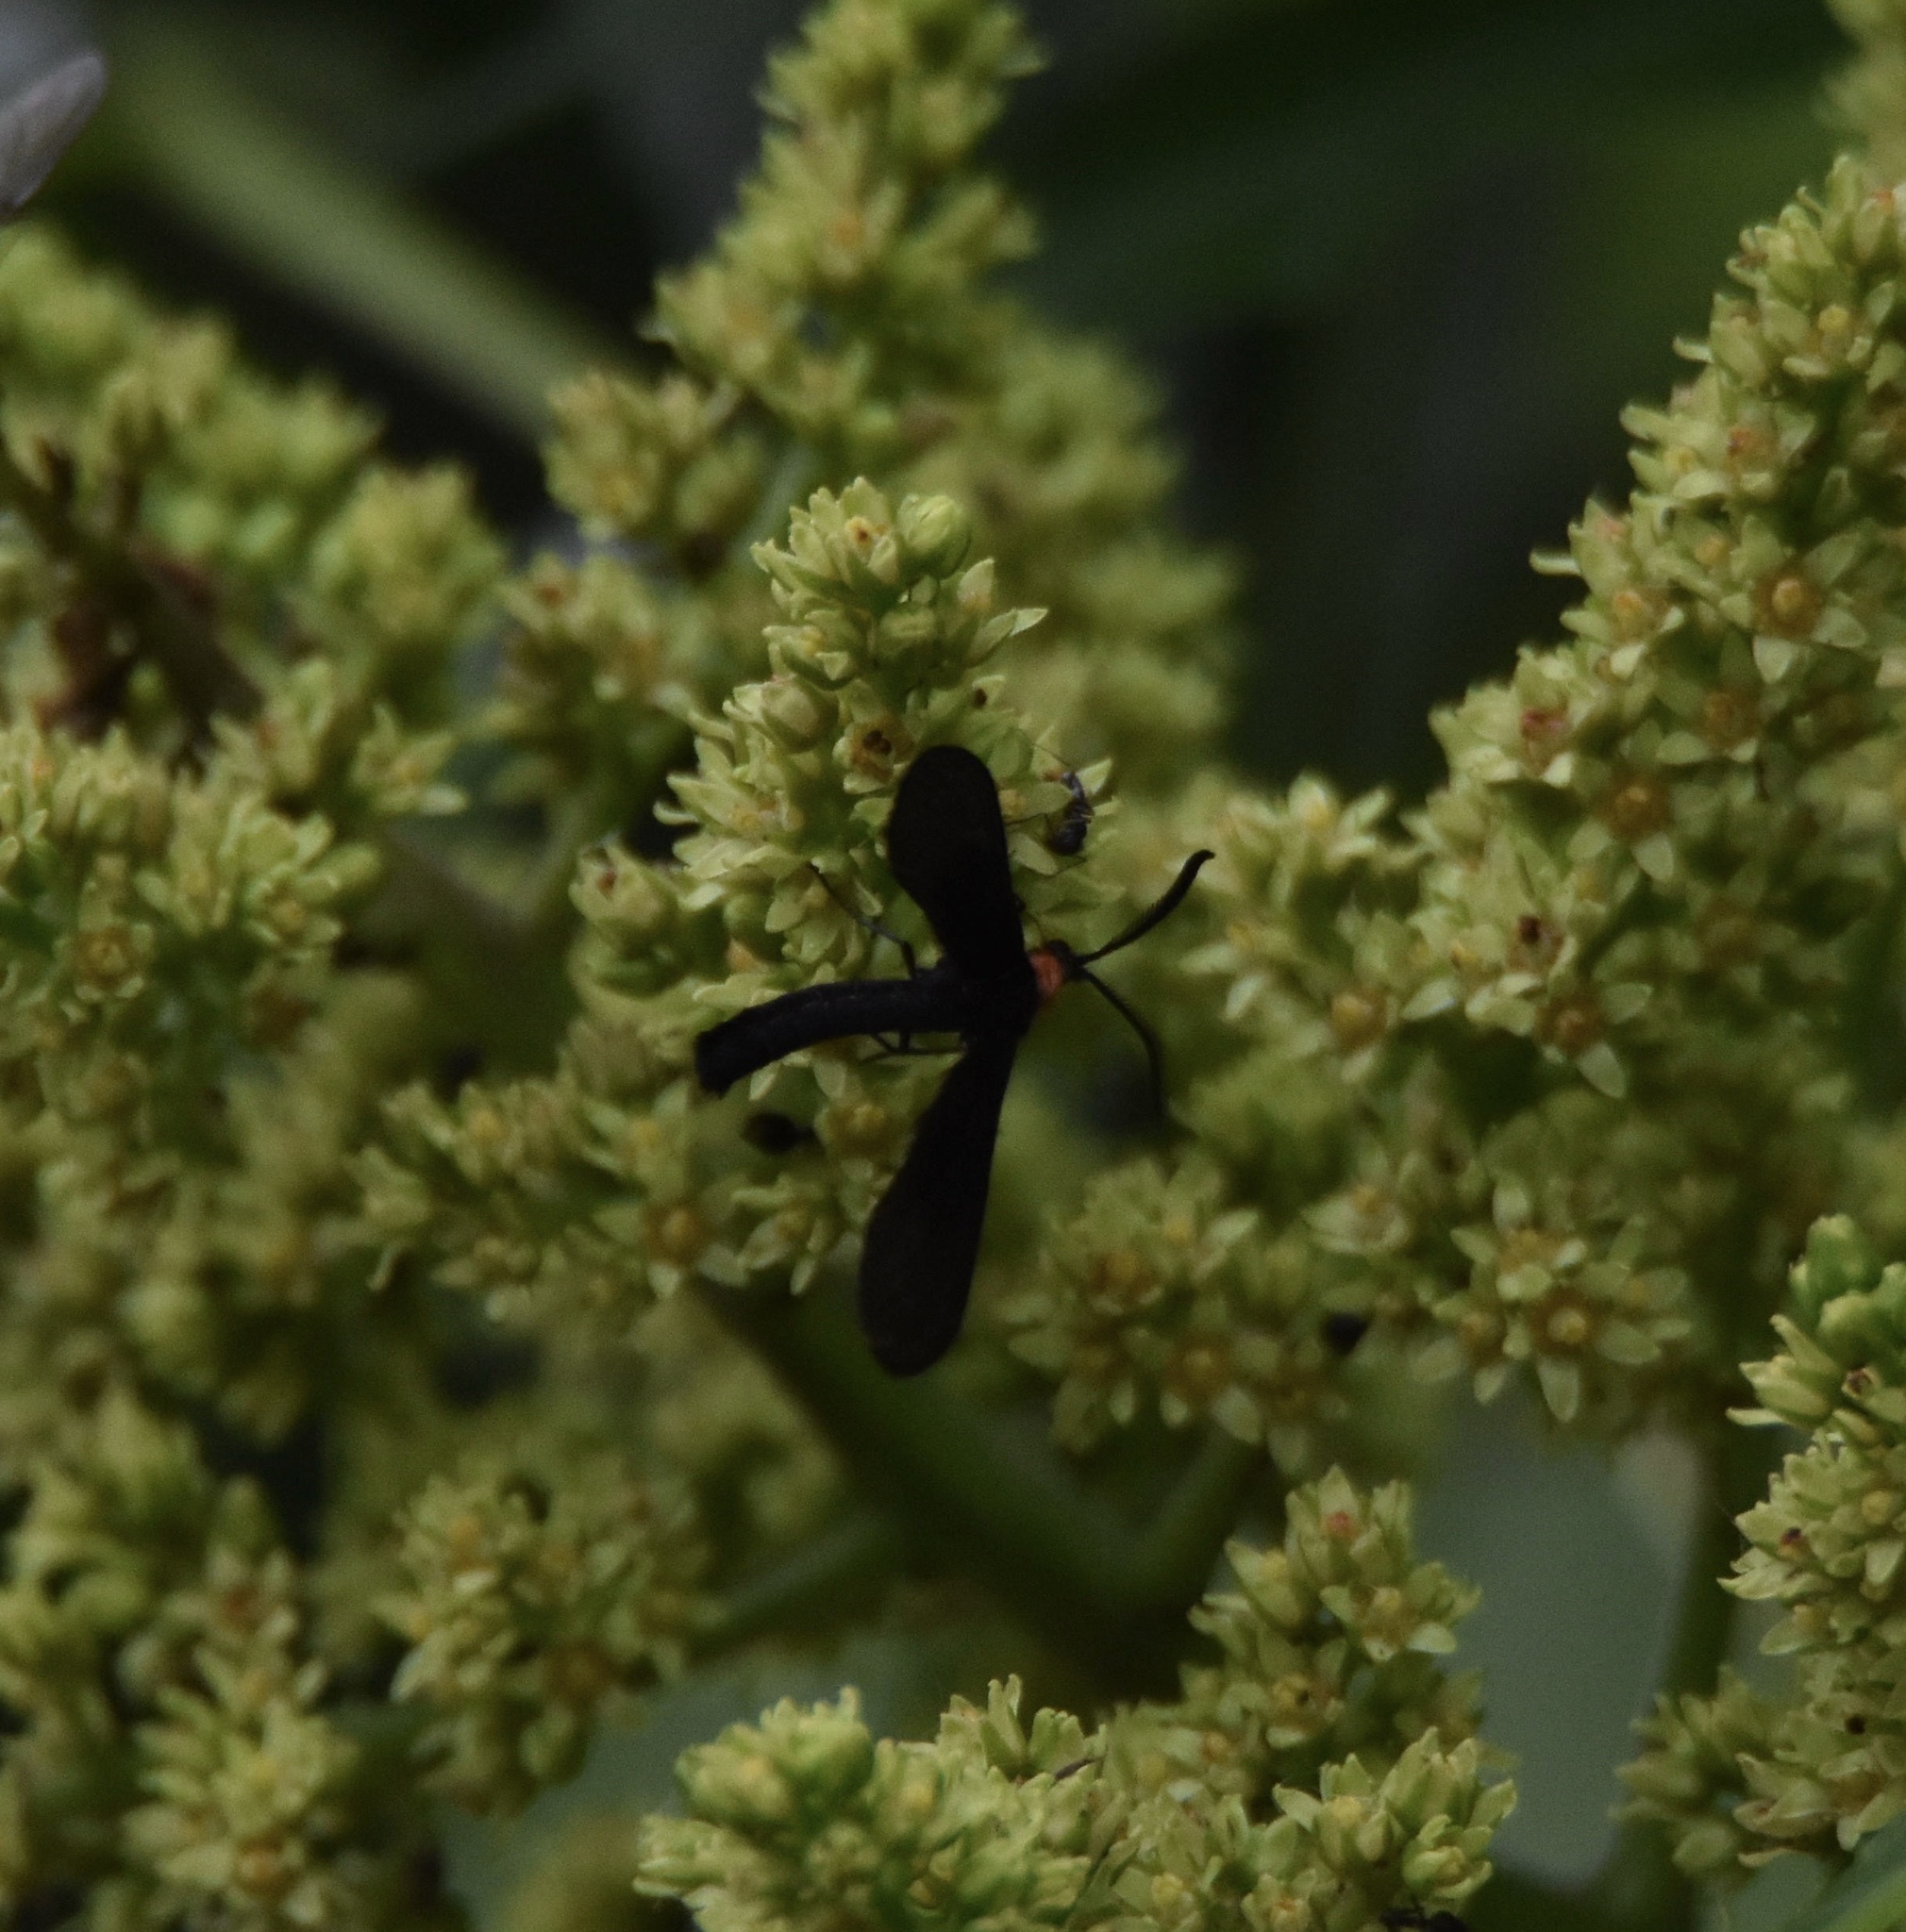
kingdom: Animalia
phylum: Arthropoda
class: Insecta
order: Lepidoptera
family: Zygaenidae
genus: Harrisina
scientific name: Harrisina americana
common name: Grapeleaf skeletonizer moth
